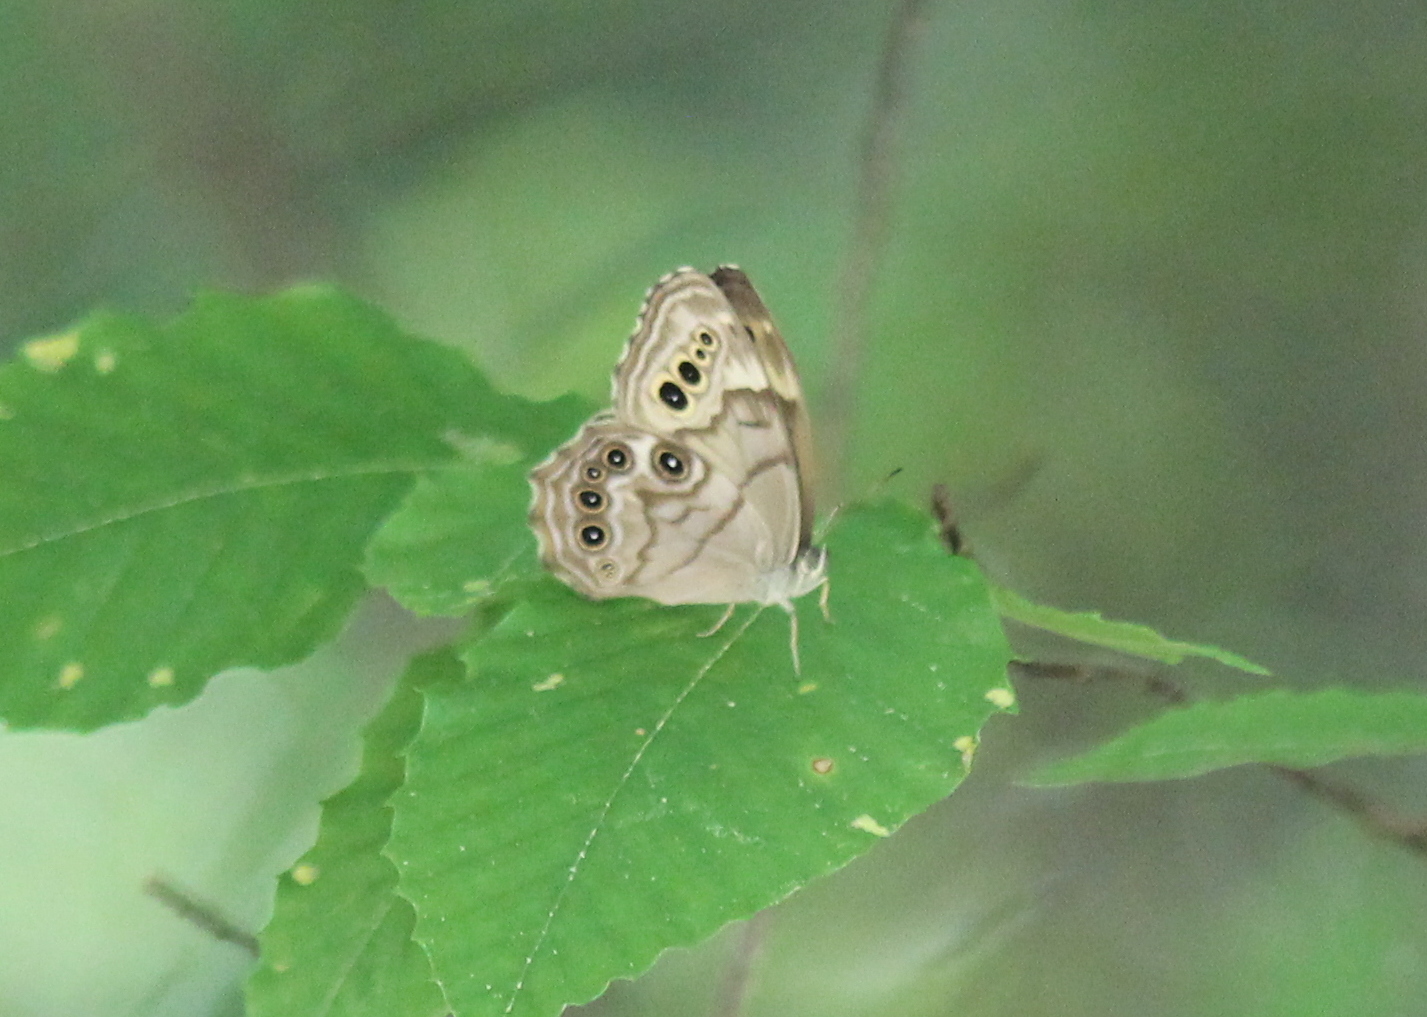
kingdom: Animalia
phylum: Arthropoda
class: Insecta
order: Lepidoptera
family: Nymphalidae
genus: Lethe
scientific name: Lethe anthedon
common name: Northern pearly-eye
